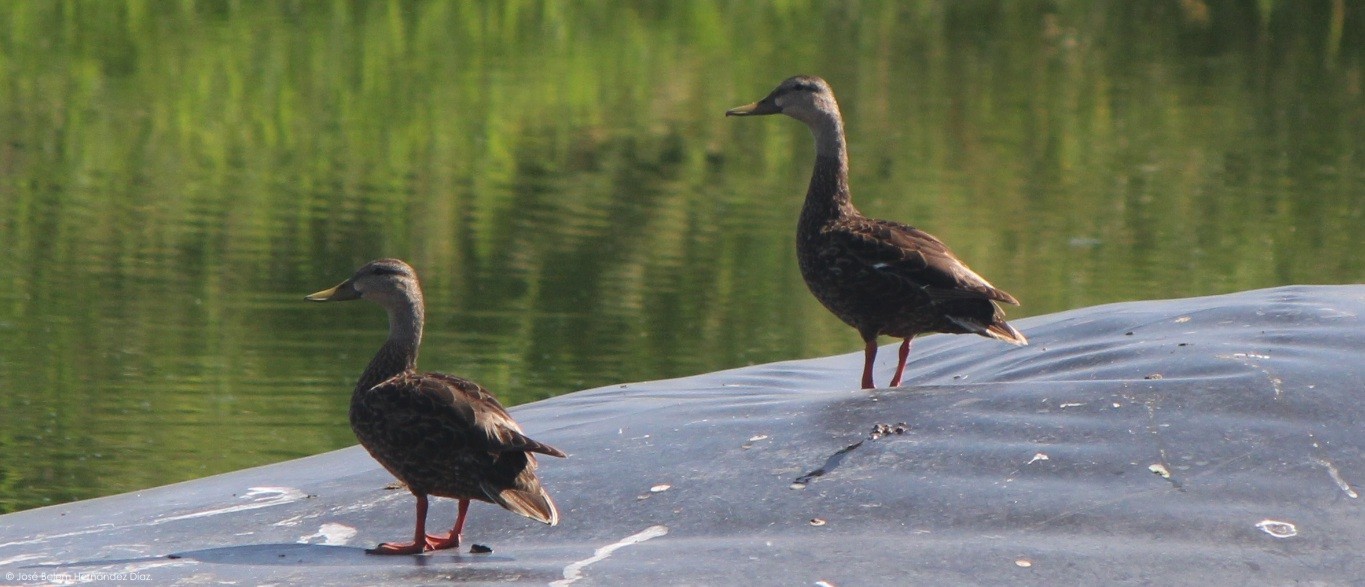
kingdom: Animalia
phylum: Chordata
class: Aves
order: Anseriformes
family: Anatidae
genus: Anas
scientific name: Anas diazi
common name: Mexican duck
